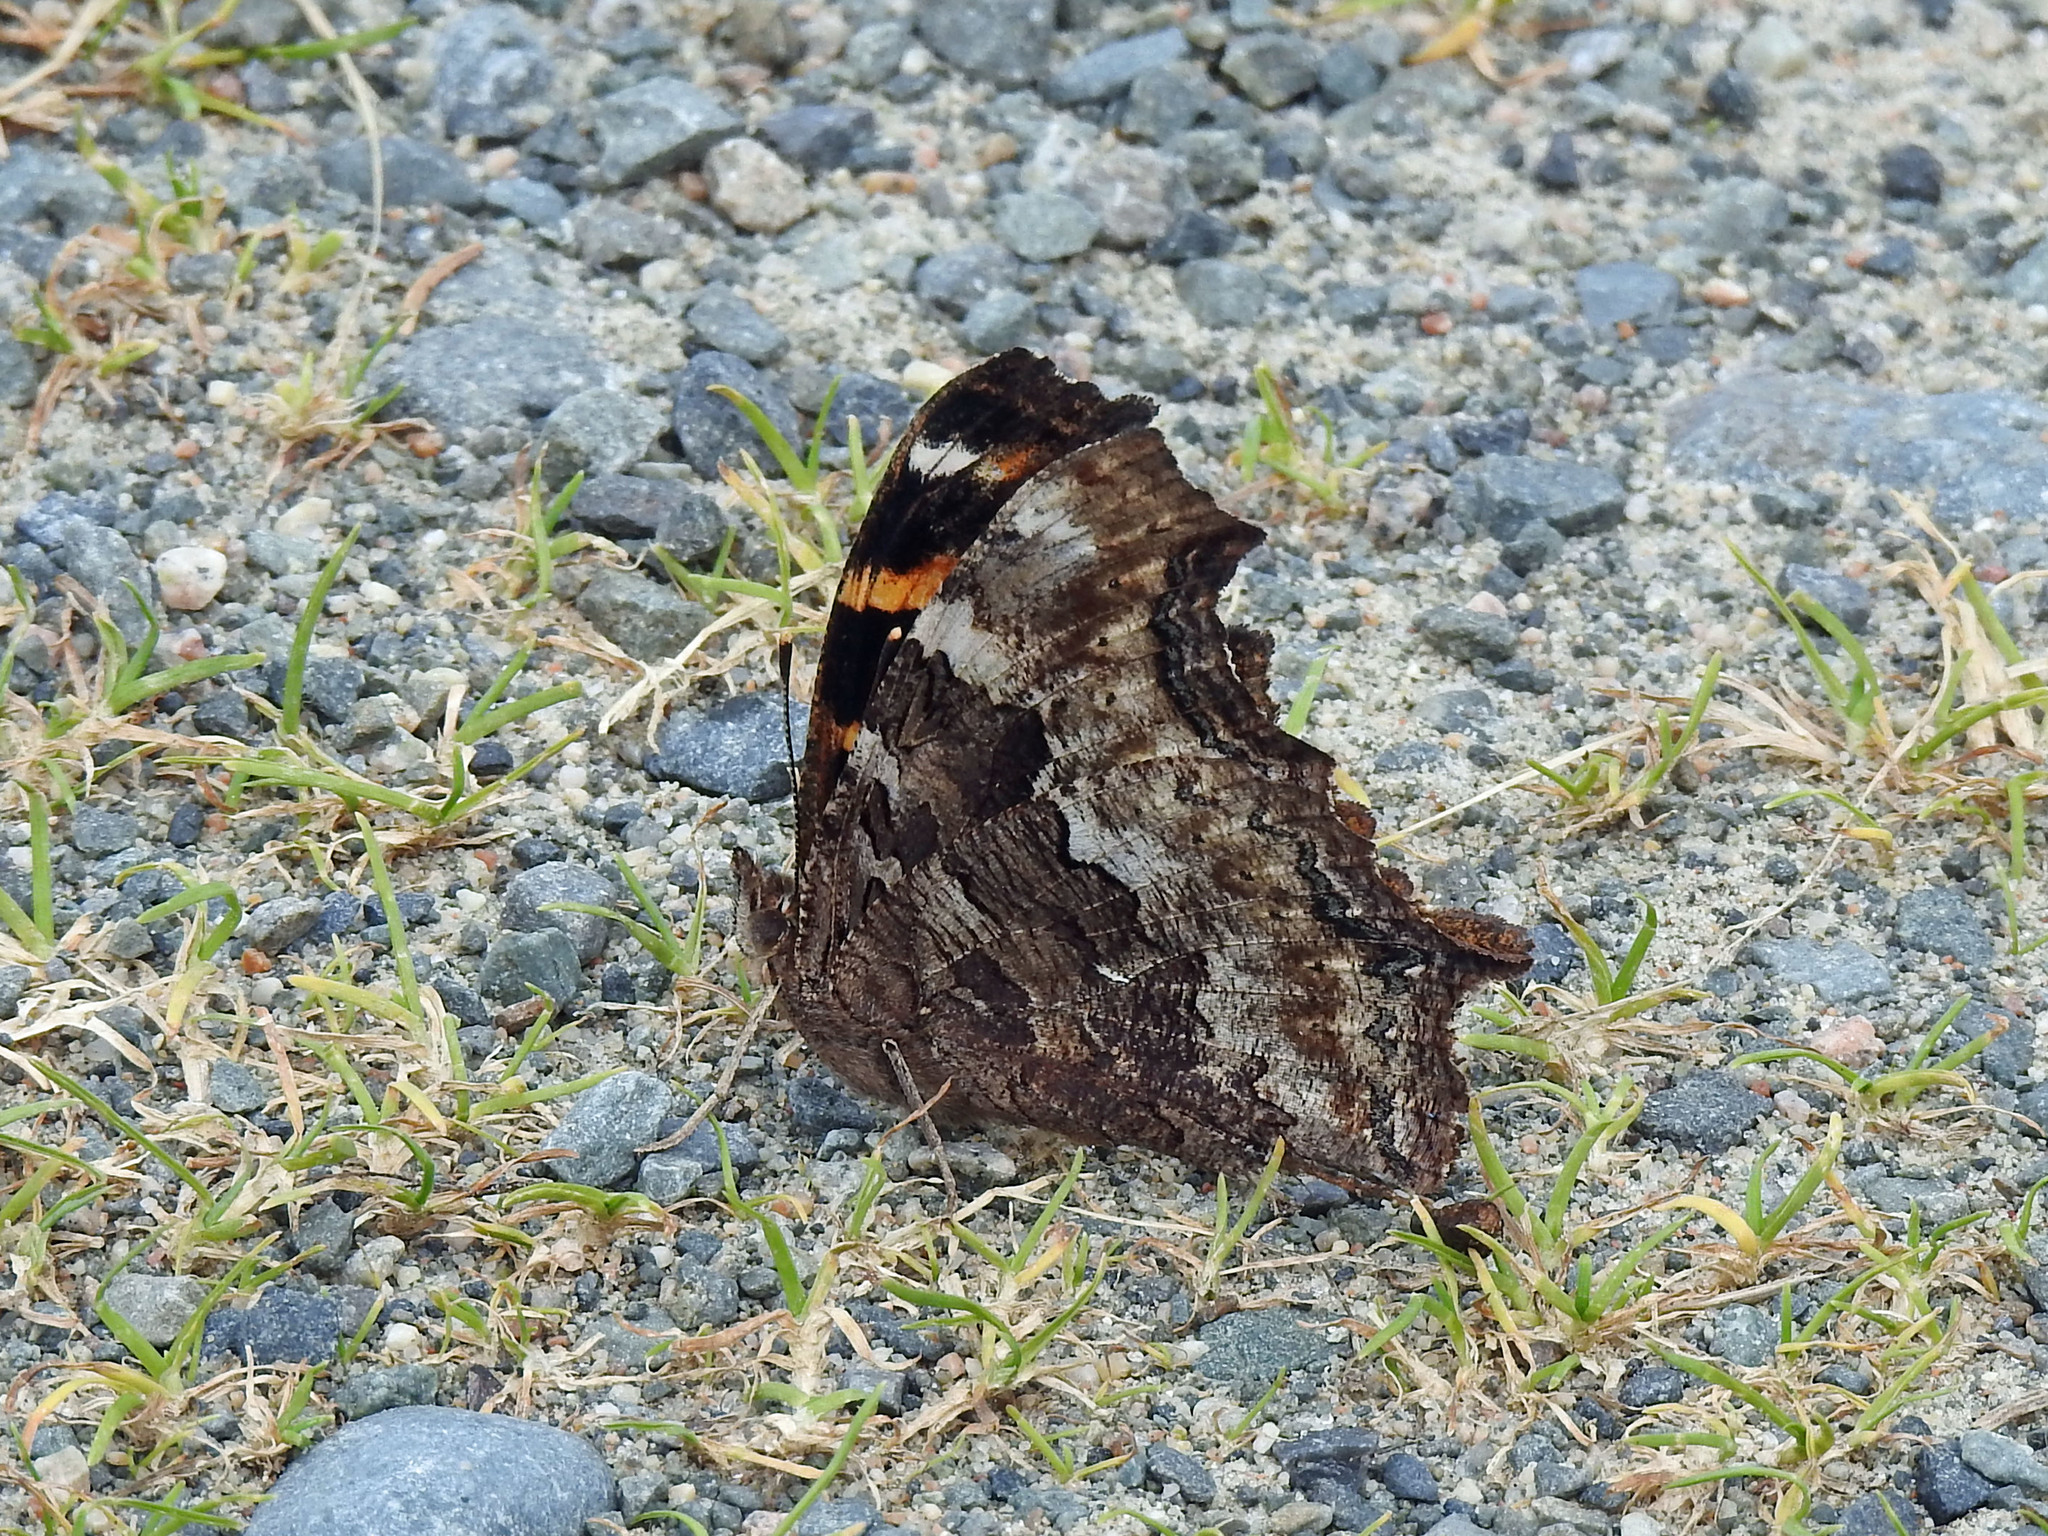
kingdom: Animalia
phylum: Arthropoda
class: Insecta
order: Lepidoptera
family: Nymphalidae
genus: Polygonia
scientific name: Polygonia vaualbum
